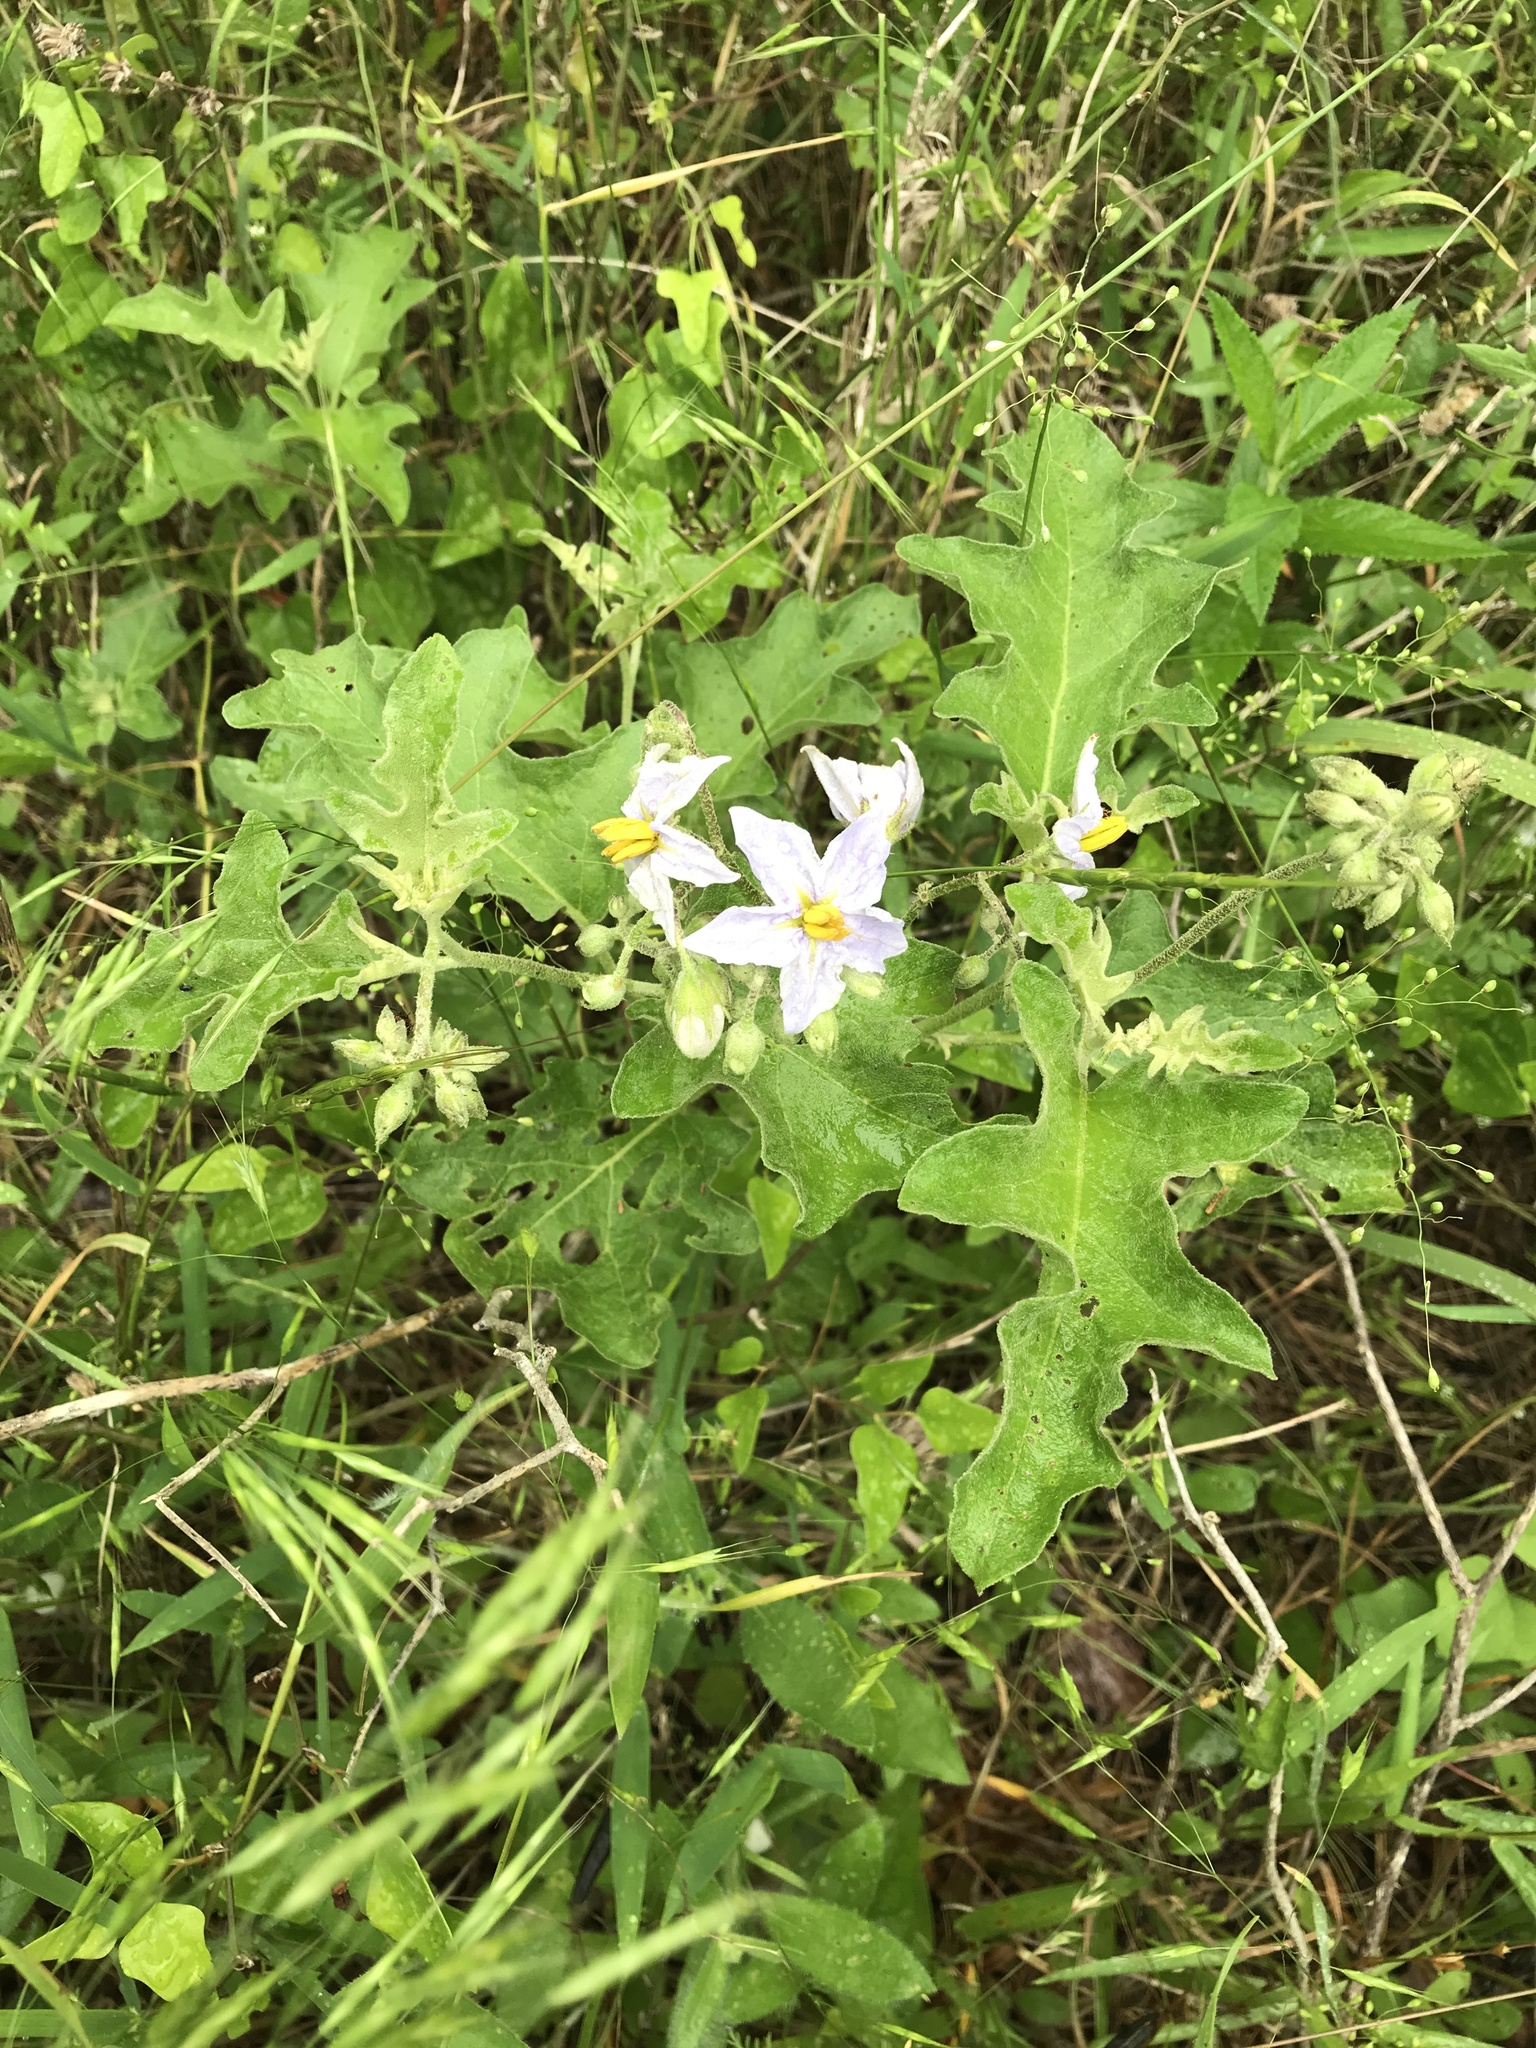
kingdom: Plantae
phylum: Tracheophyta
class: Magnoliopsida
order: Solanales
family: Solanaceae
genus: Solanum
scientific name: Solanum dimidiatum
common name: Carolina horse-nettle
